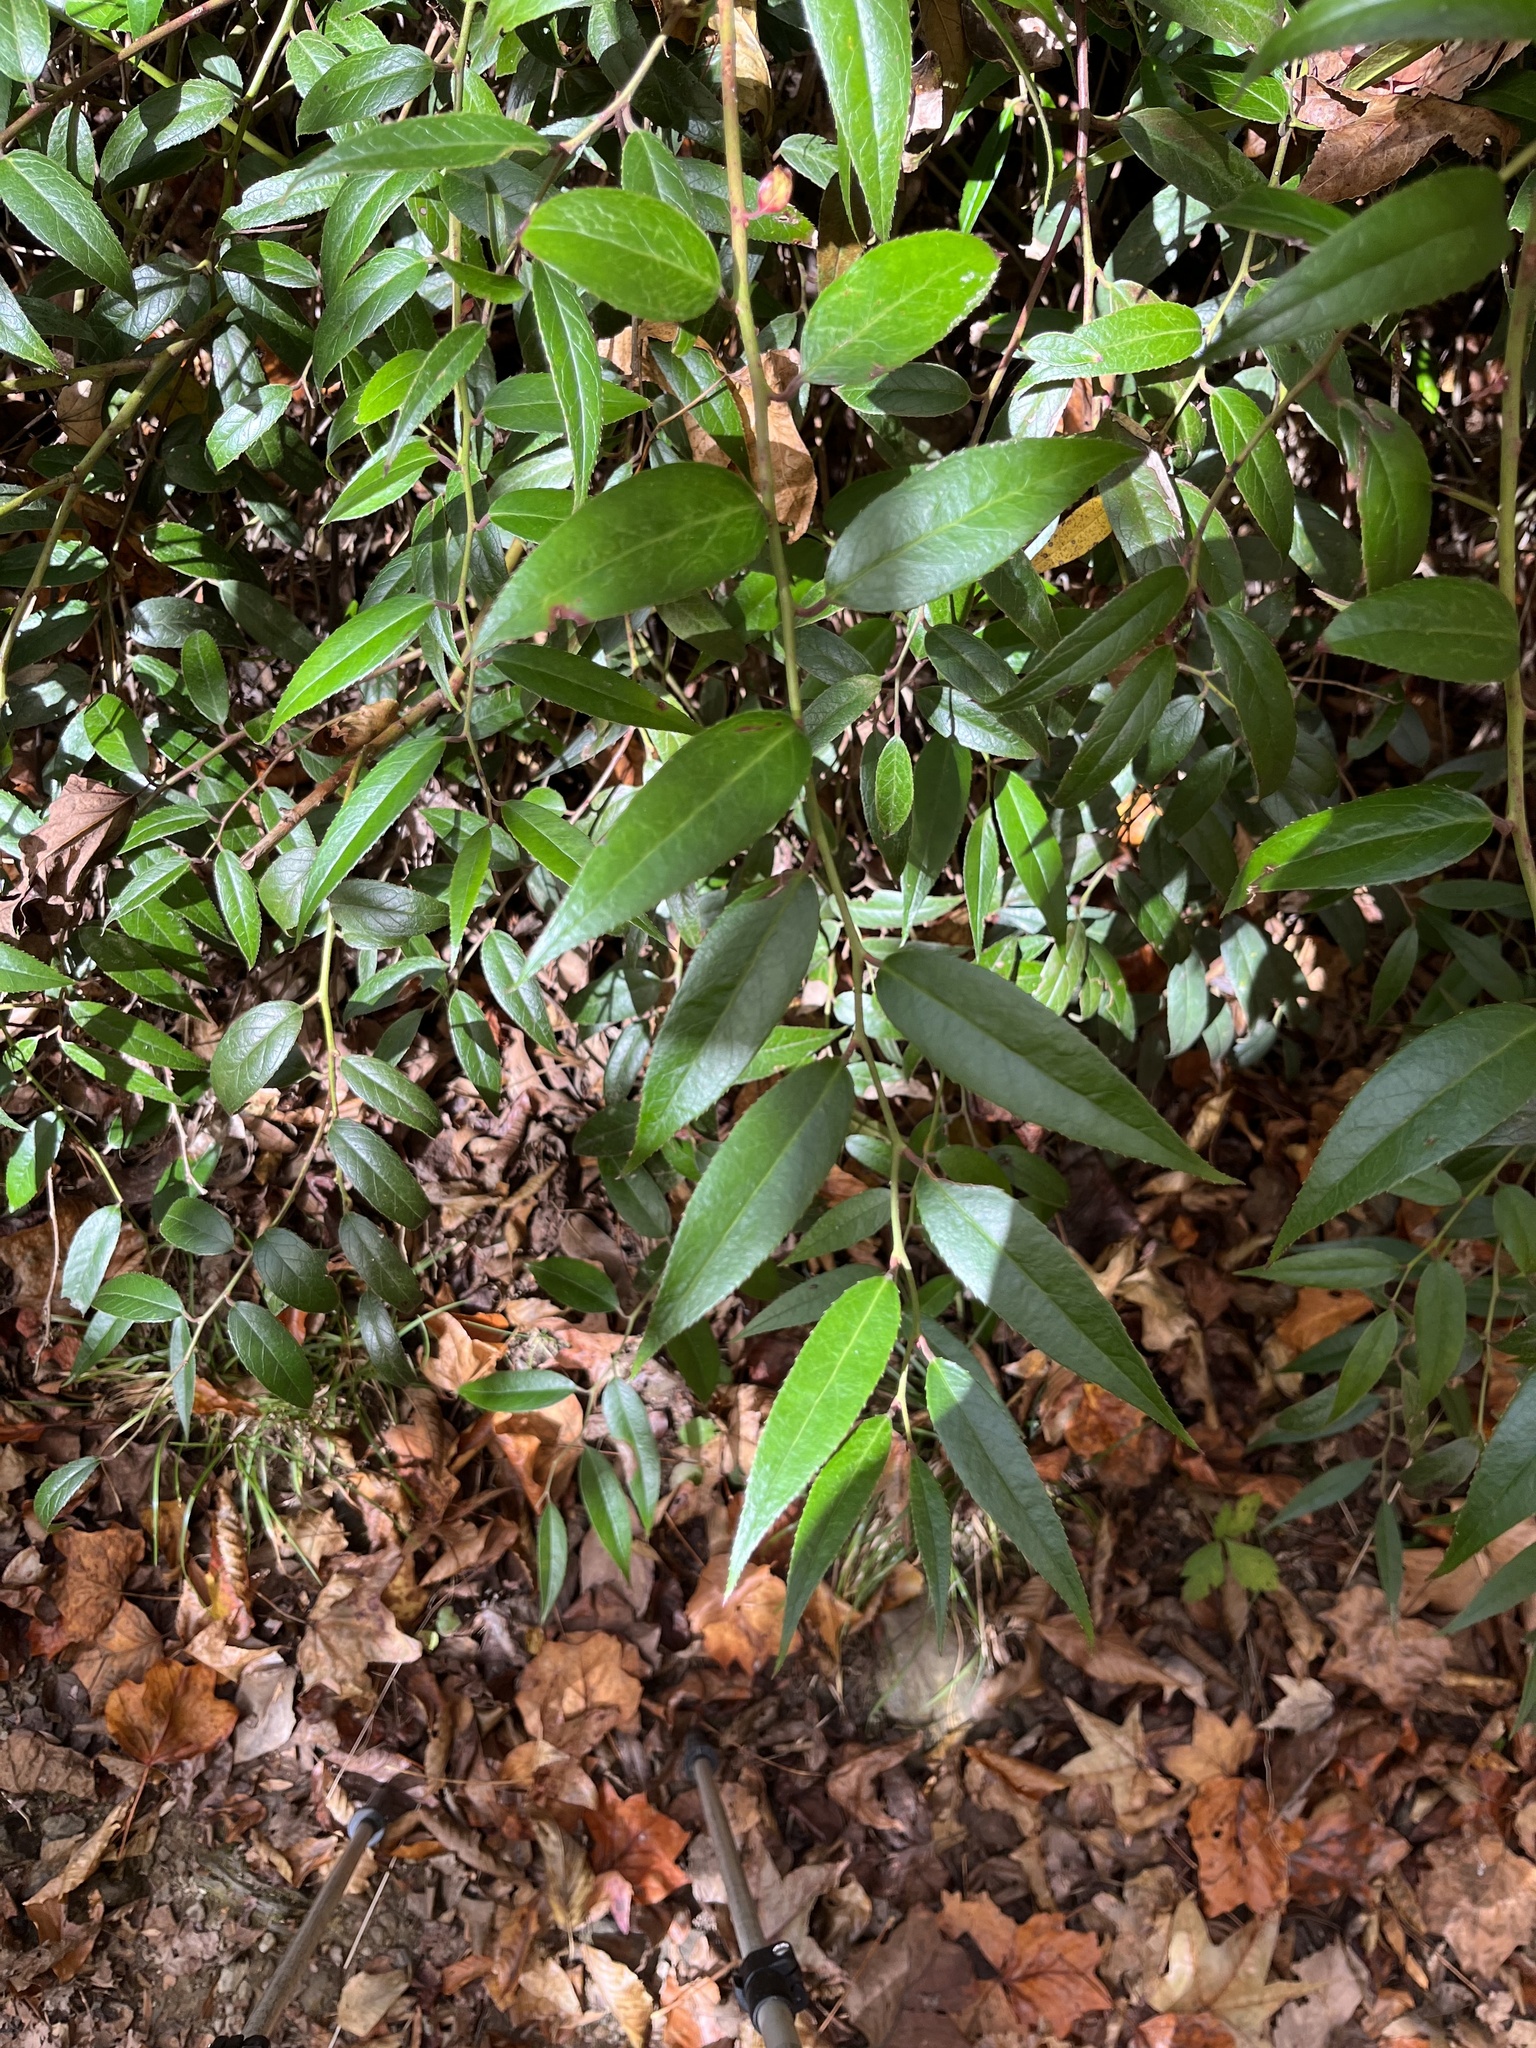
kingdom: Plantae
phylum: Tracheophyta
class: Magnoliopsida
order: Ericales
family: Ericaceae
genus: Leucothoe
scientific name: Leucothoe fontanesiana
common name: Fetterbush
